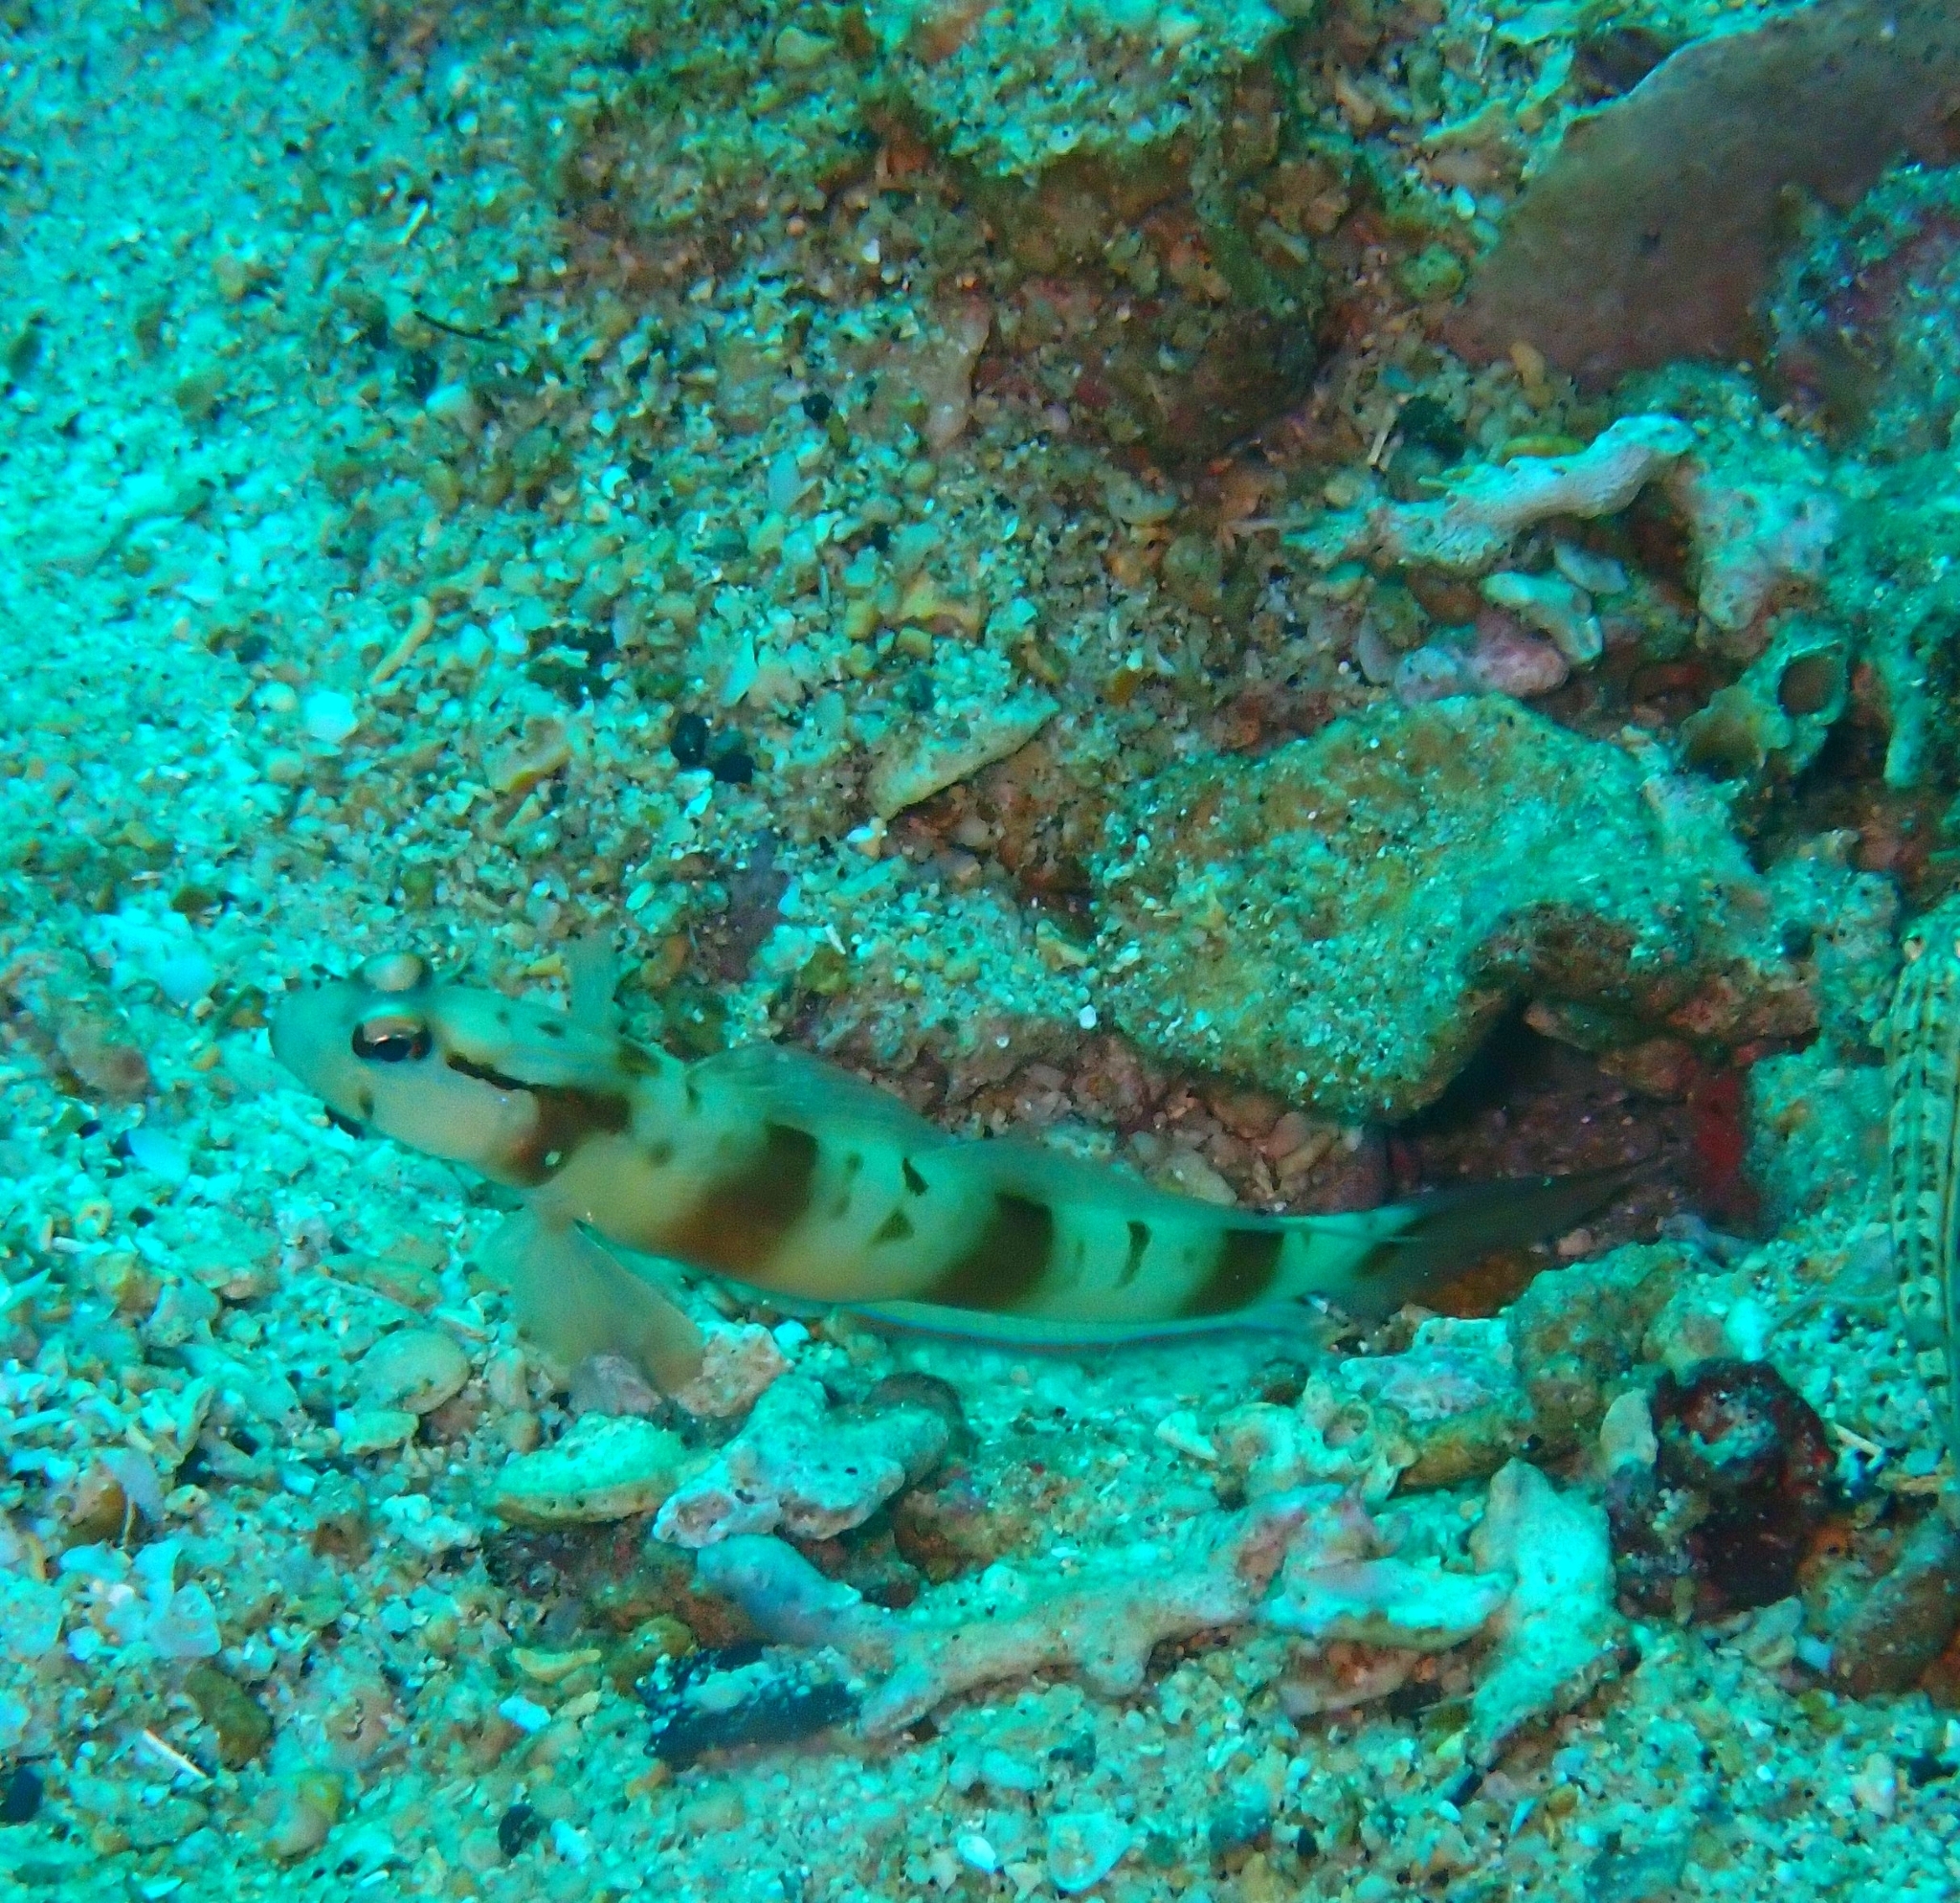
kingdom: Animalia
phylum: Chordata
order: Perciformes
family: Gobiidae
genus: Amblyeleotris
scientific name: Amblyeleotris gymnocephala
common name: Masked shrimpgoby
